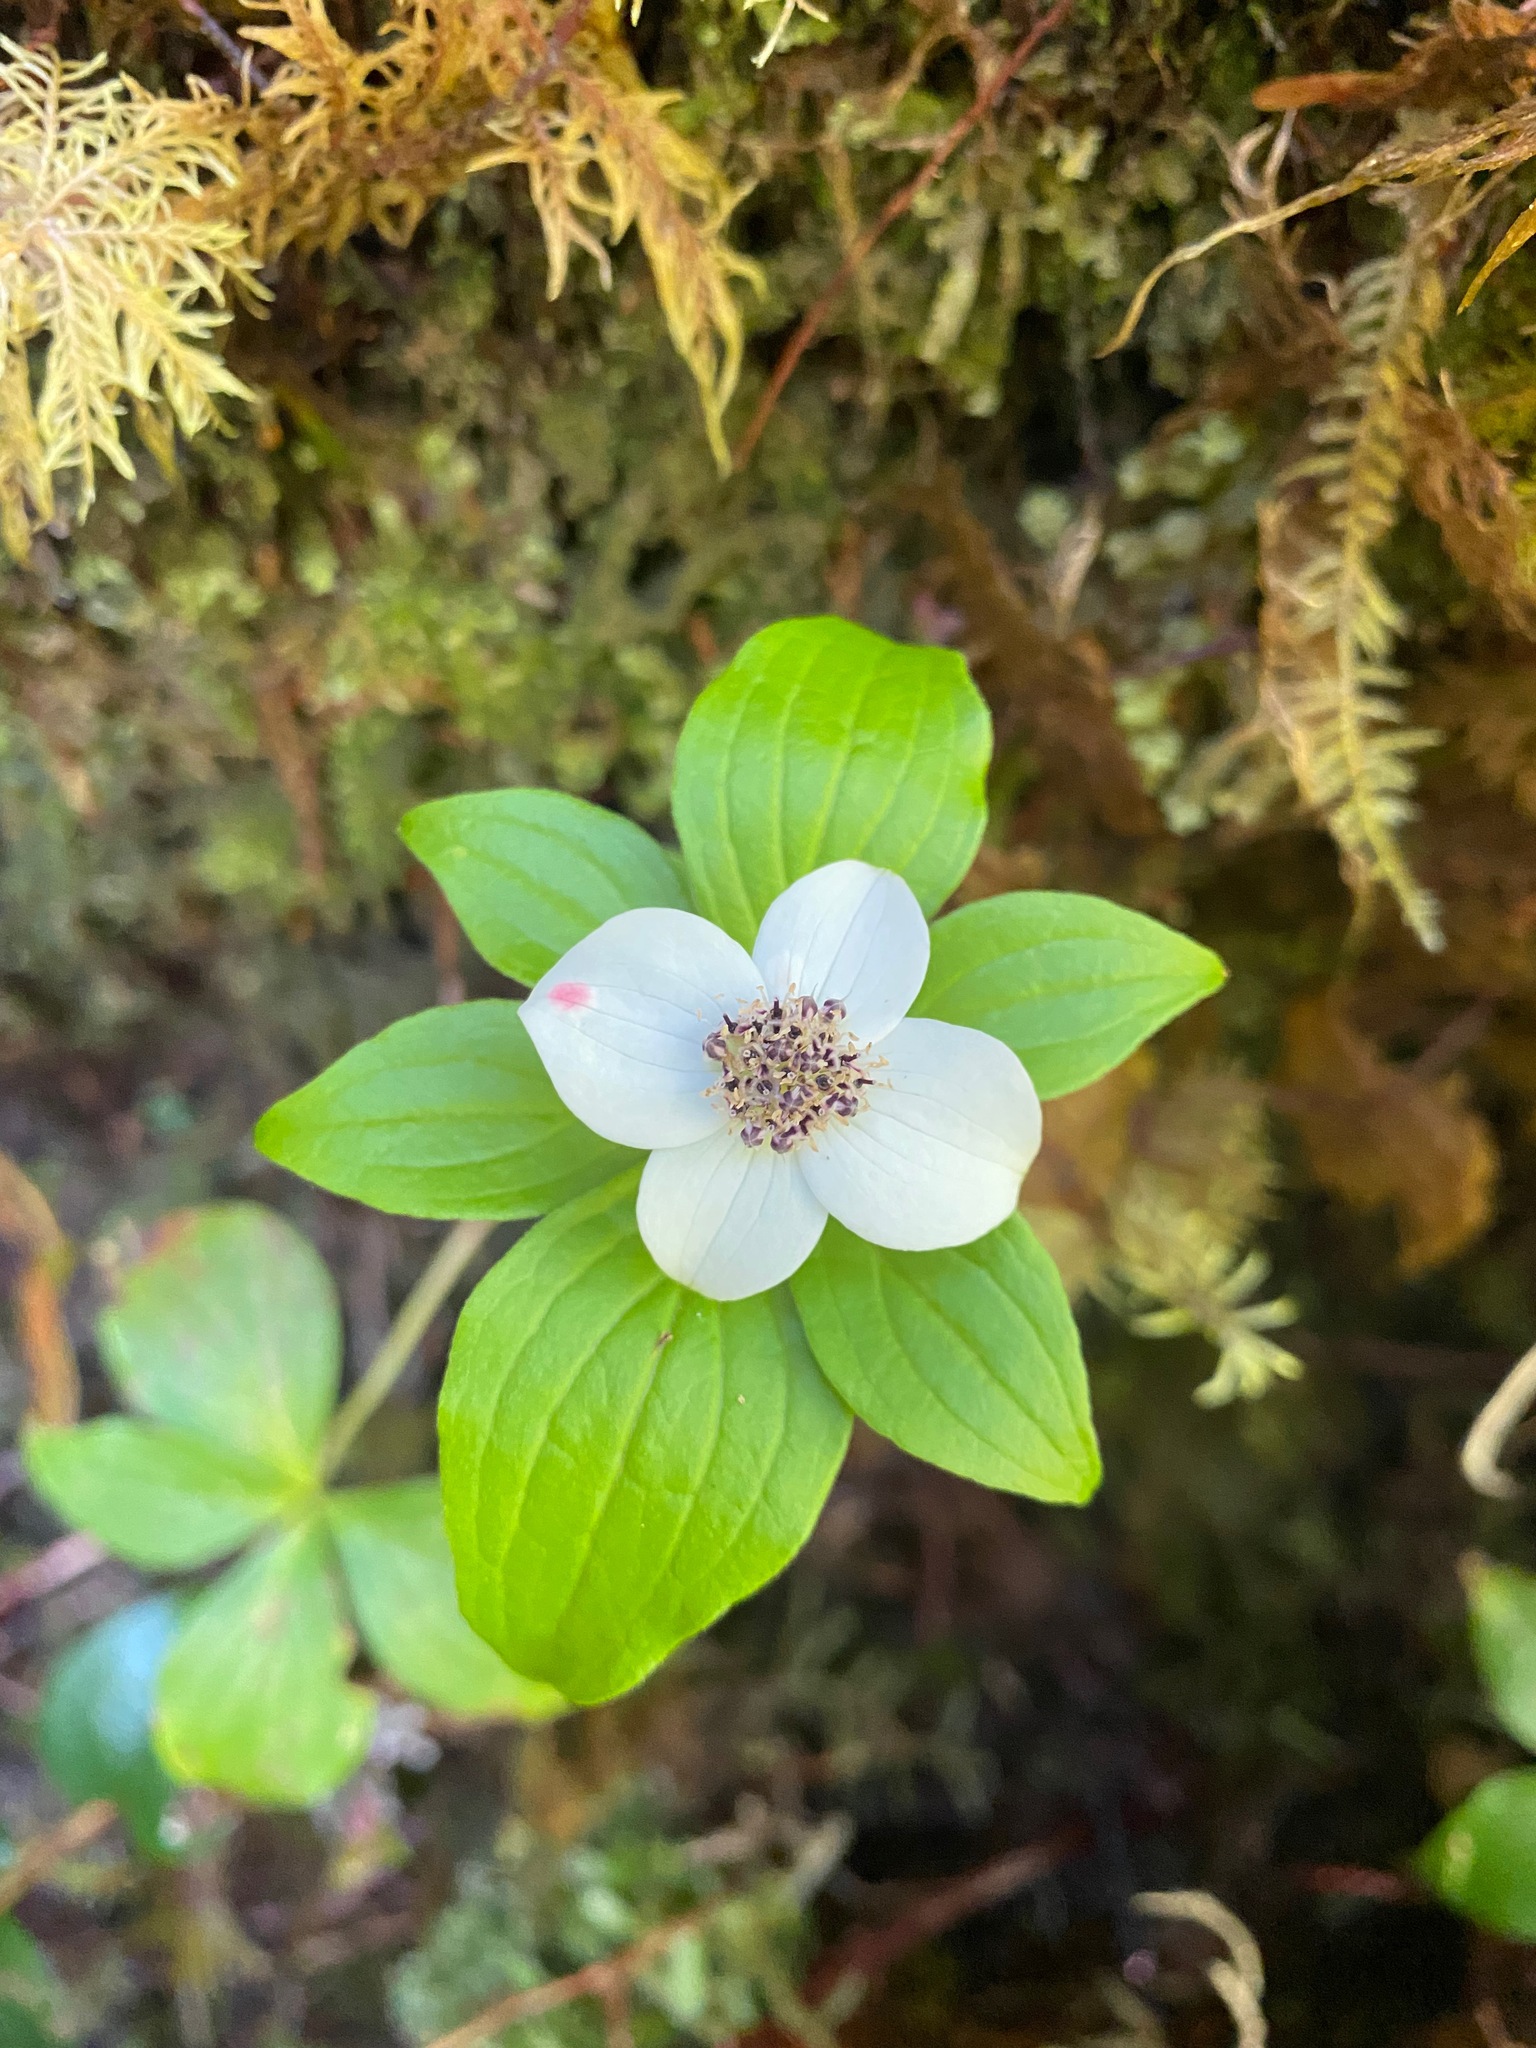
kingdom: Plantae
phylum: Tracheophyta
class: Magnoliopsida
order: Cornales
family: Cornaceae
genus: Cornus
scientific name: Cornus unalaschkensis
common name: Alaska bunchberry
